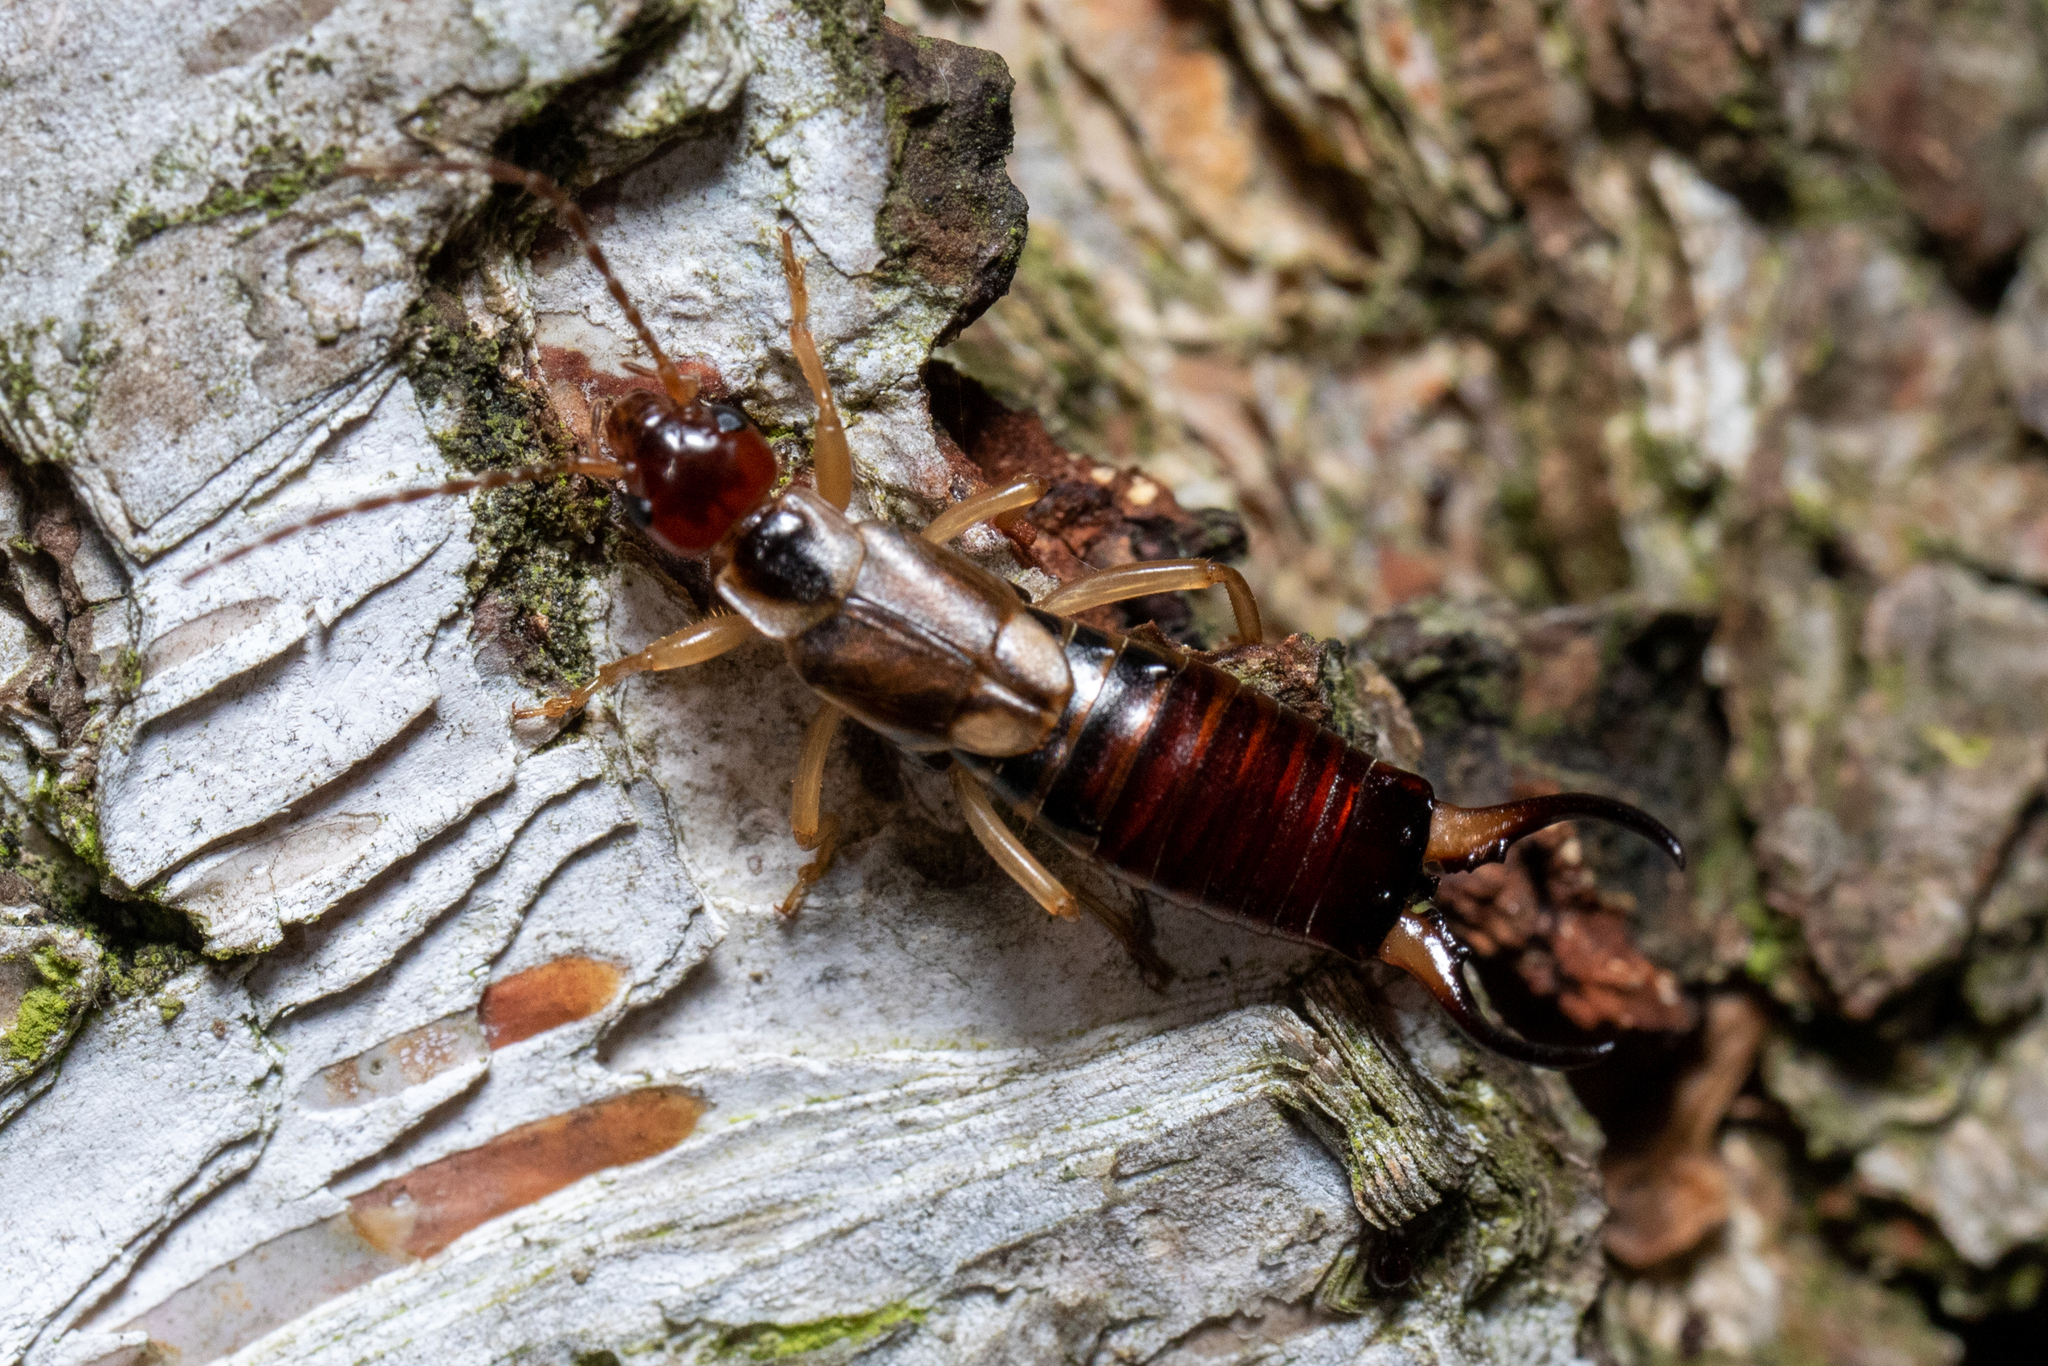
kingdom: Animalia
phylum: Arthropoda
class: Insecta
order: Dermaptera
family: Forficulidae
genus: Forficula
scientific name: Forficula
